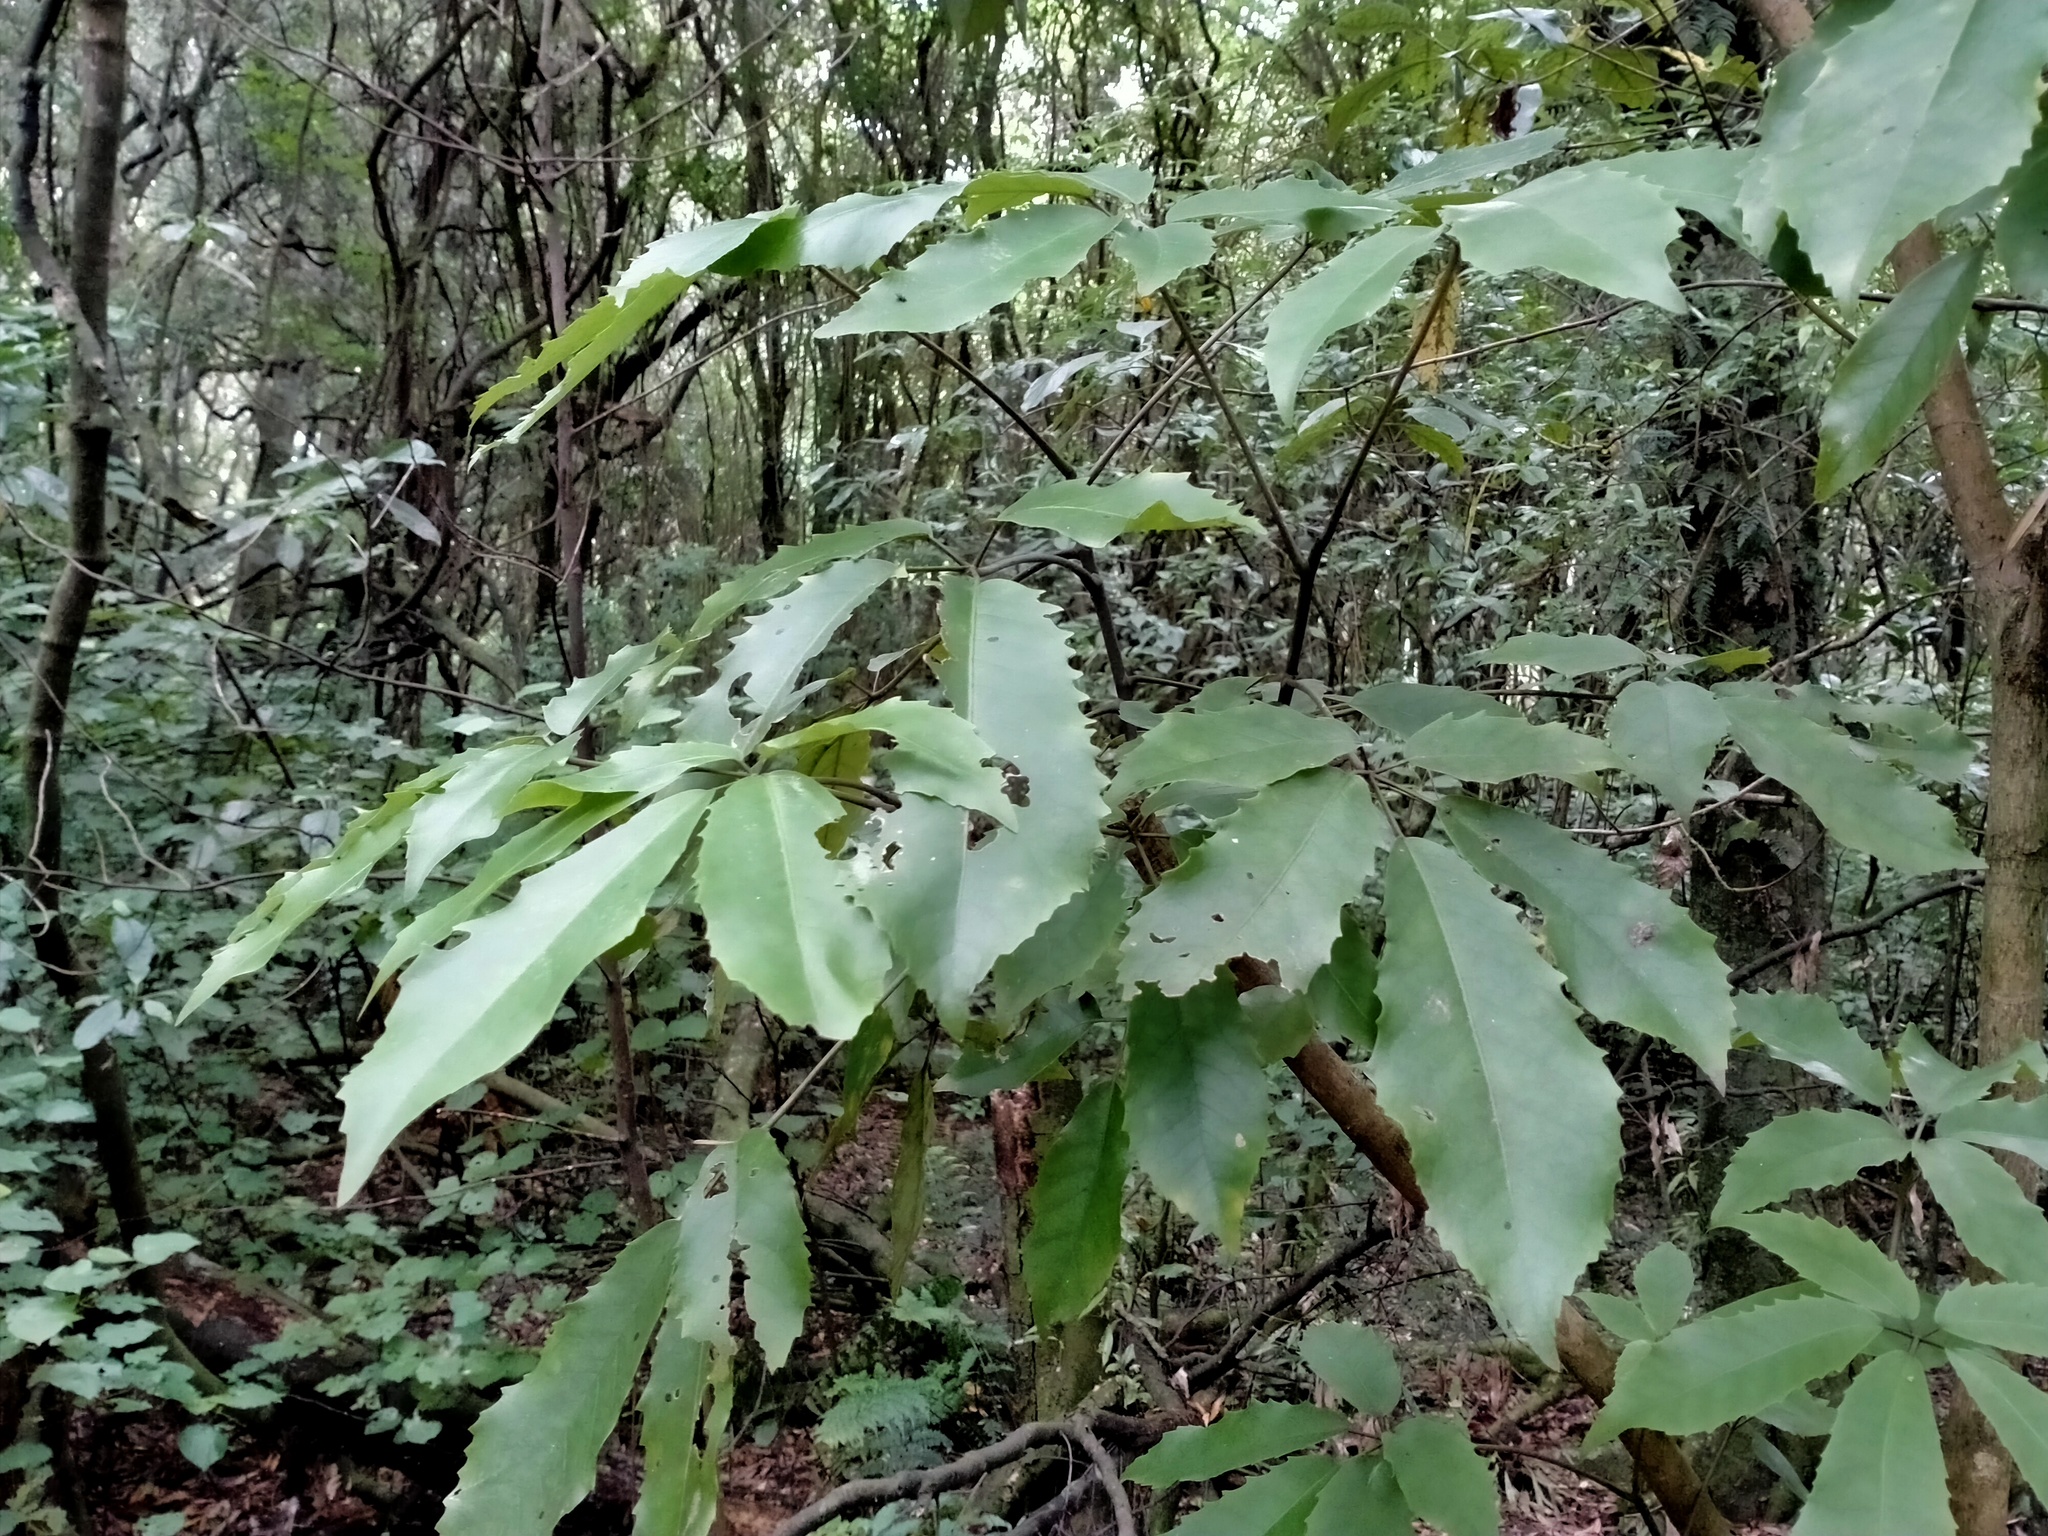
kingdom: Plantae
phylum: Tracheophyta
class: Magnoliopsida
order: Apiales
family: Araliaceae
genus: Schefflera
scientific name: Schefflera digitata
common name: Pate
